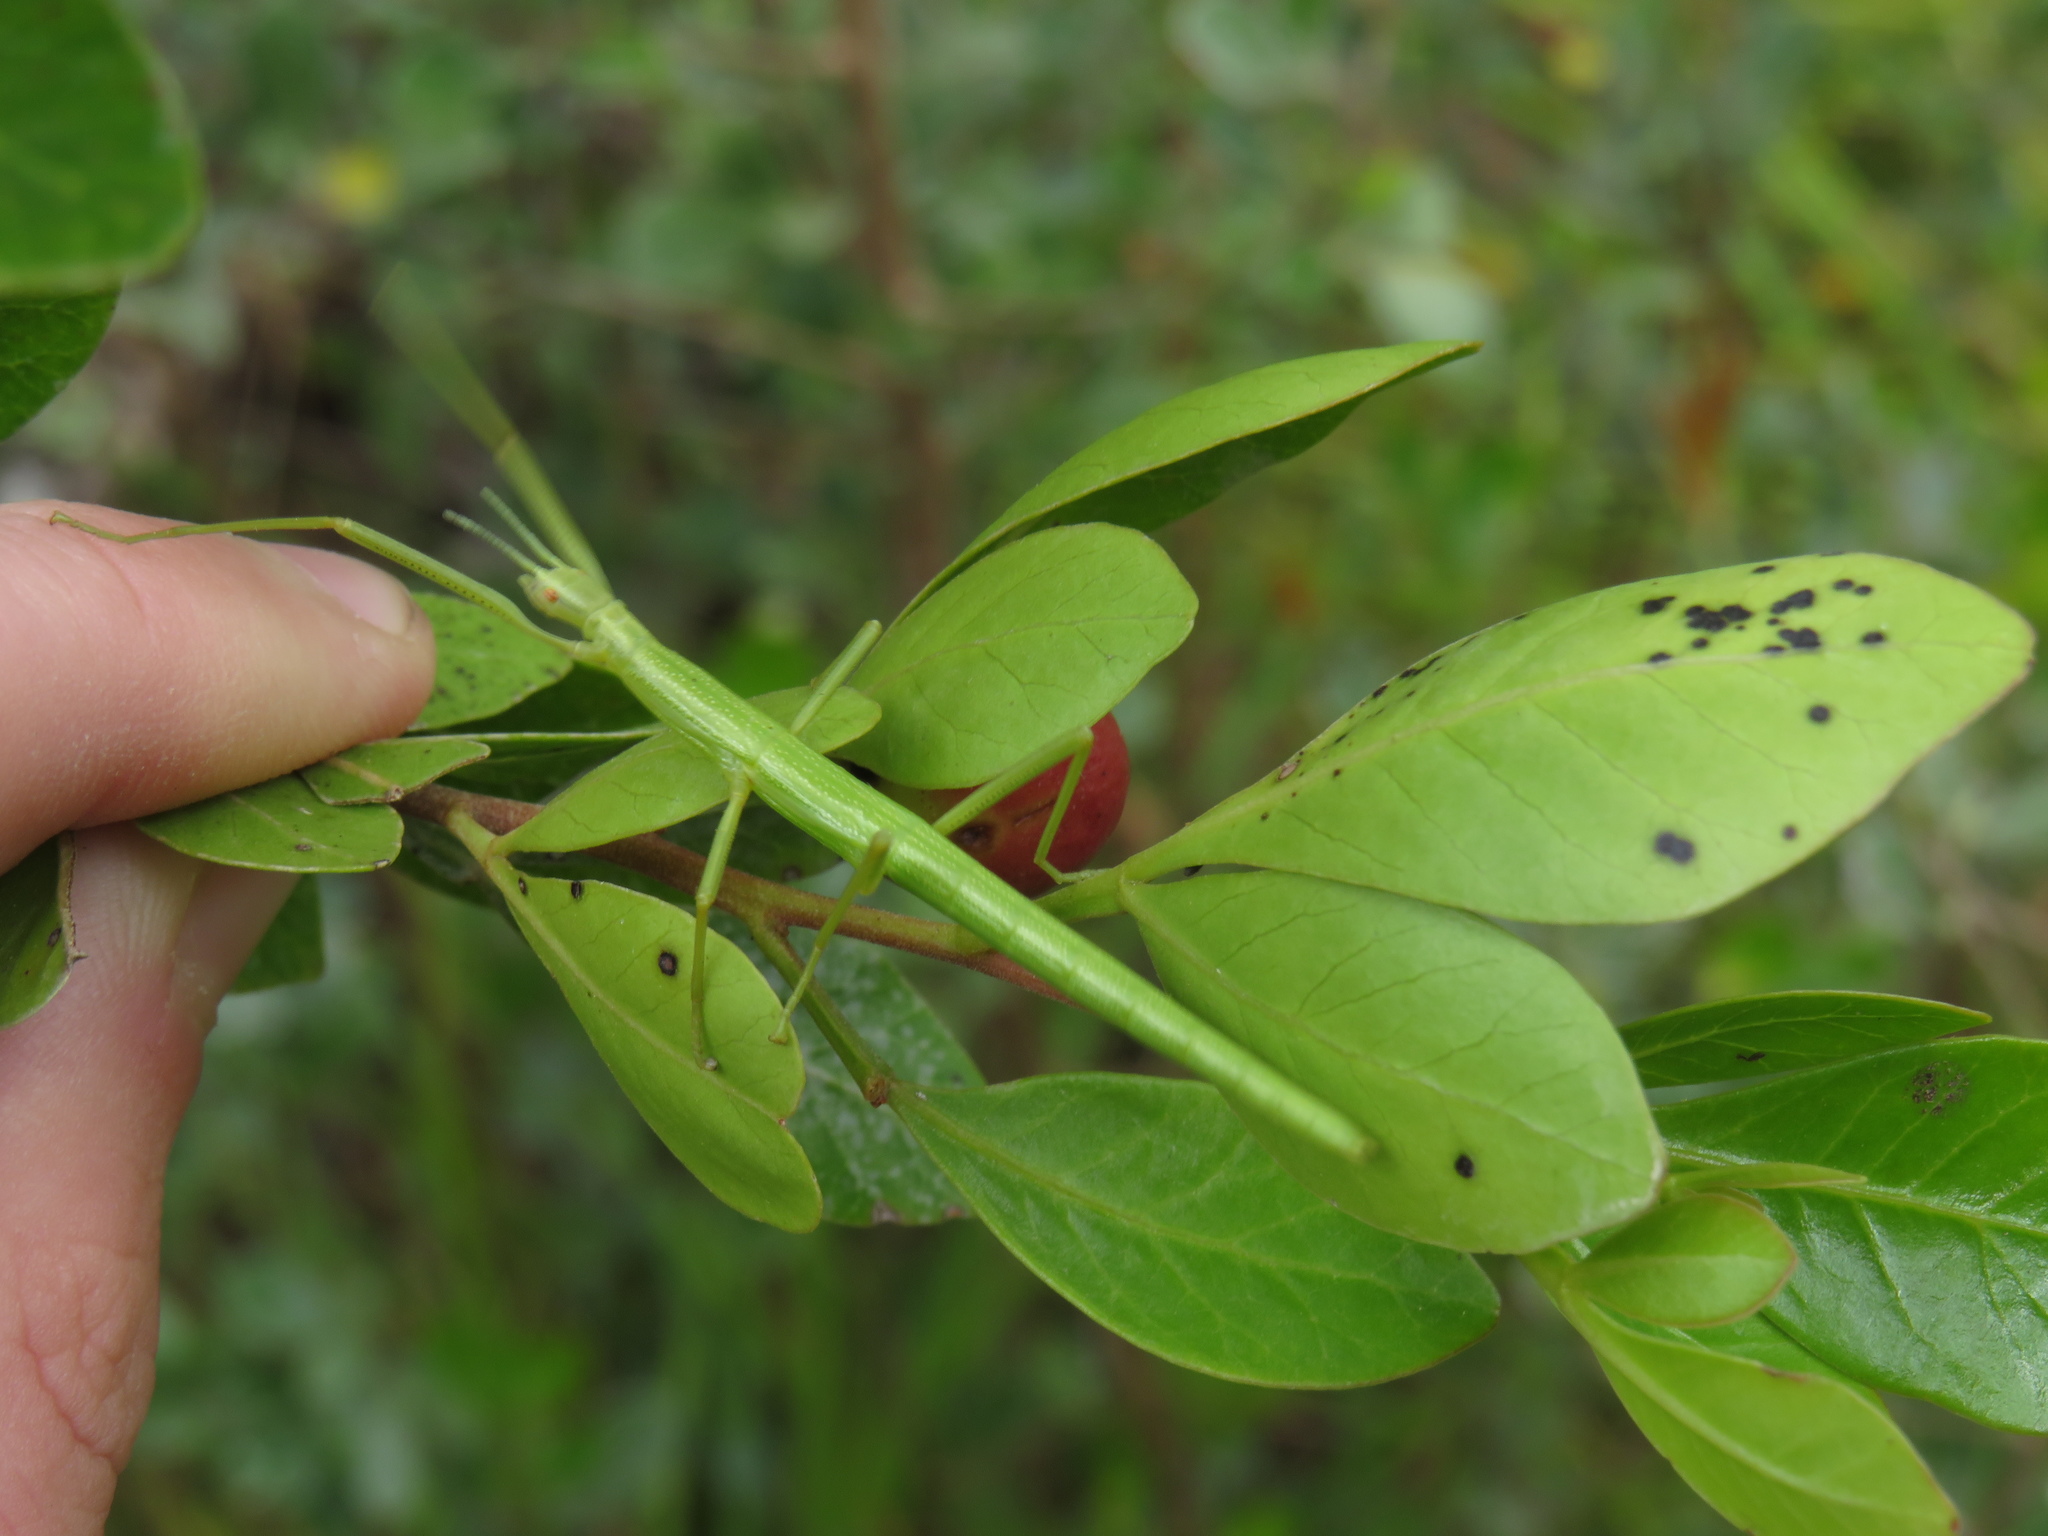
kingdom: Animalia
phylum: Arthropoda
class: Insecta
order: Phasmida
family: Bacillidae
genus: Macynia
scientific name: Macynia labiata
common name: Thunberg's stick insect
